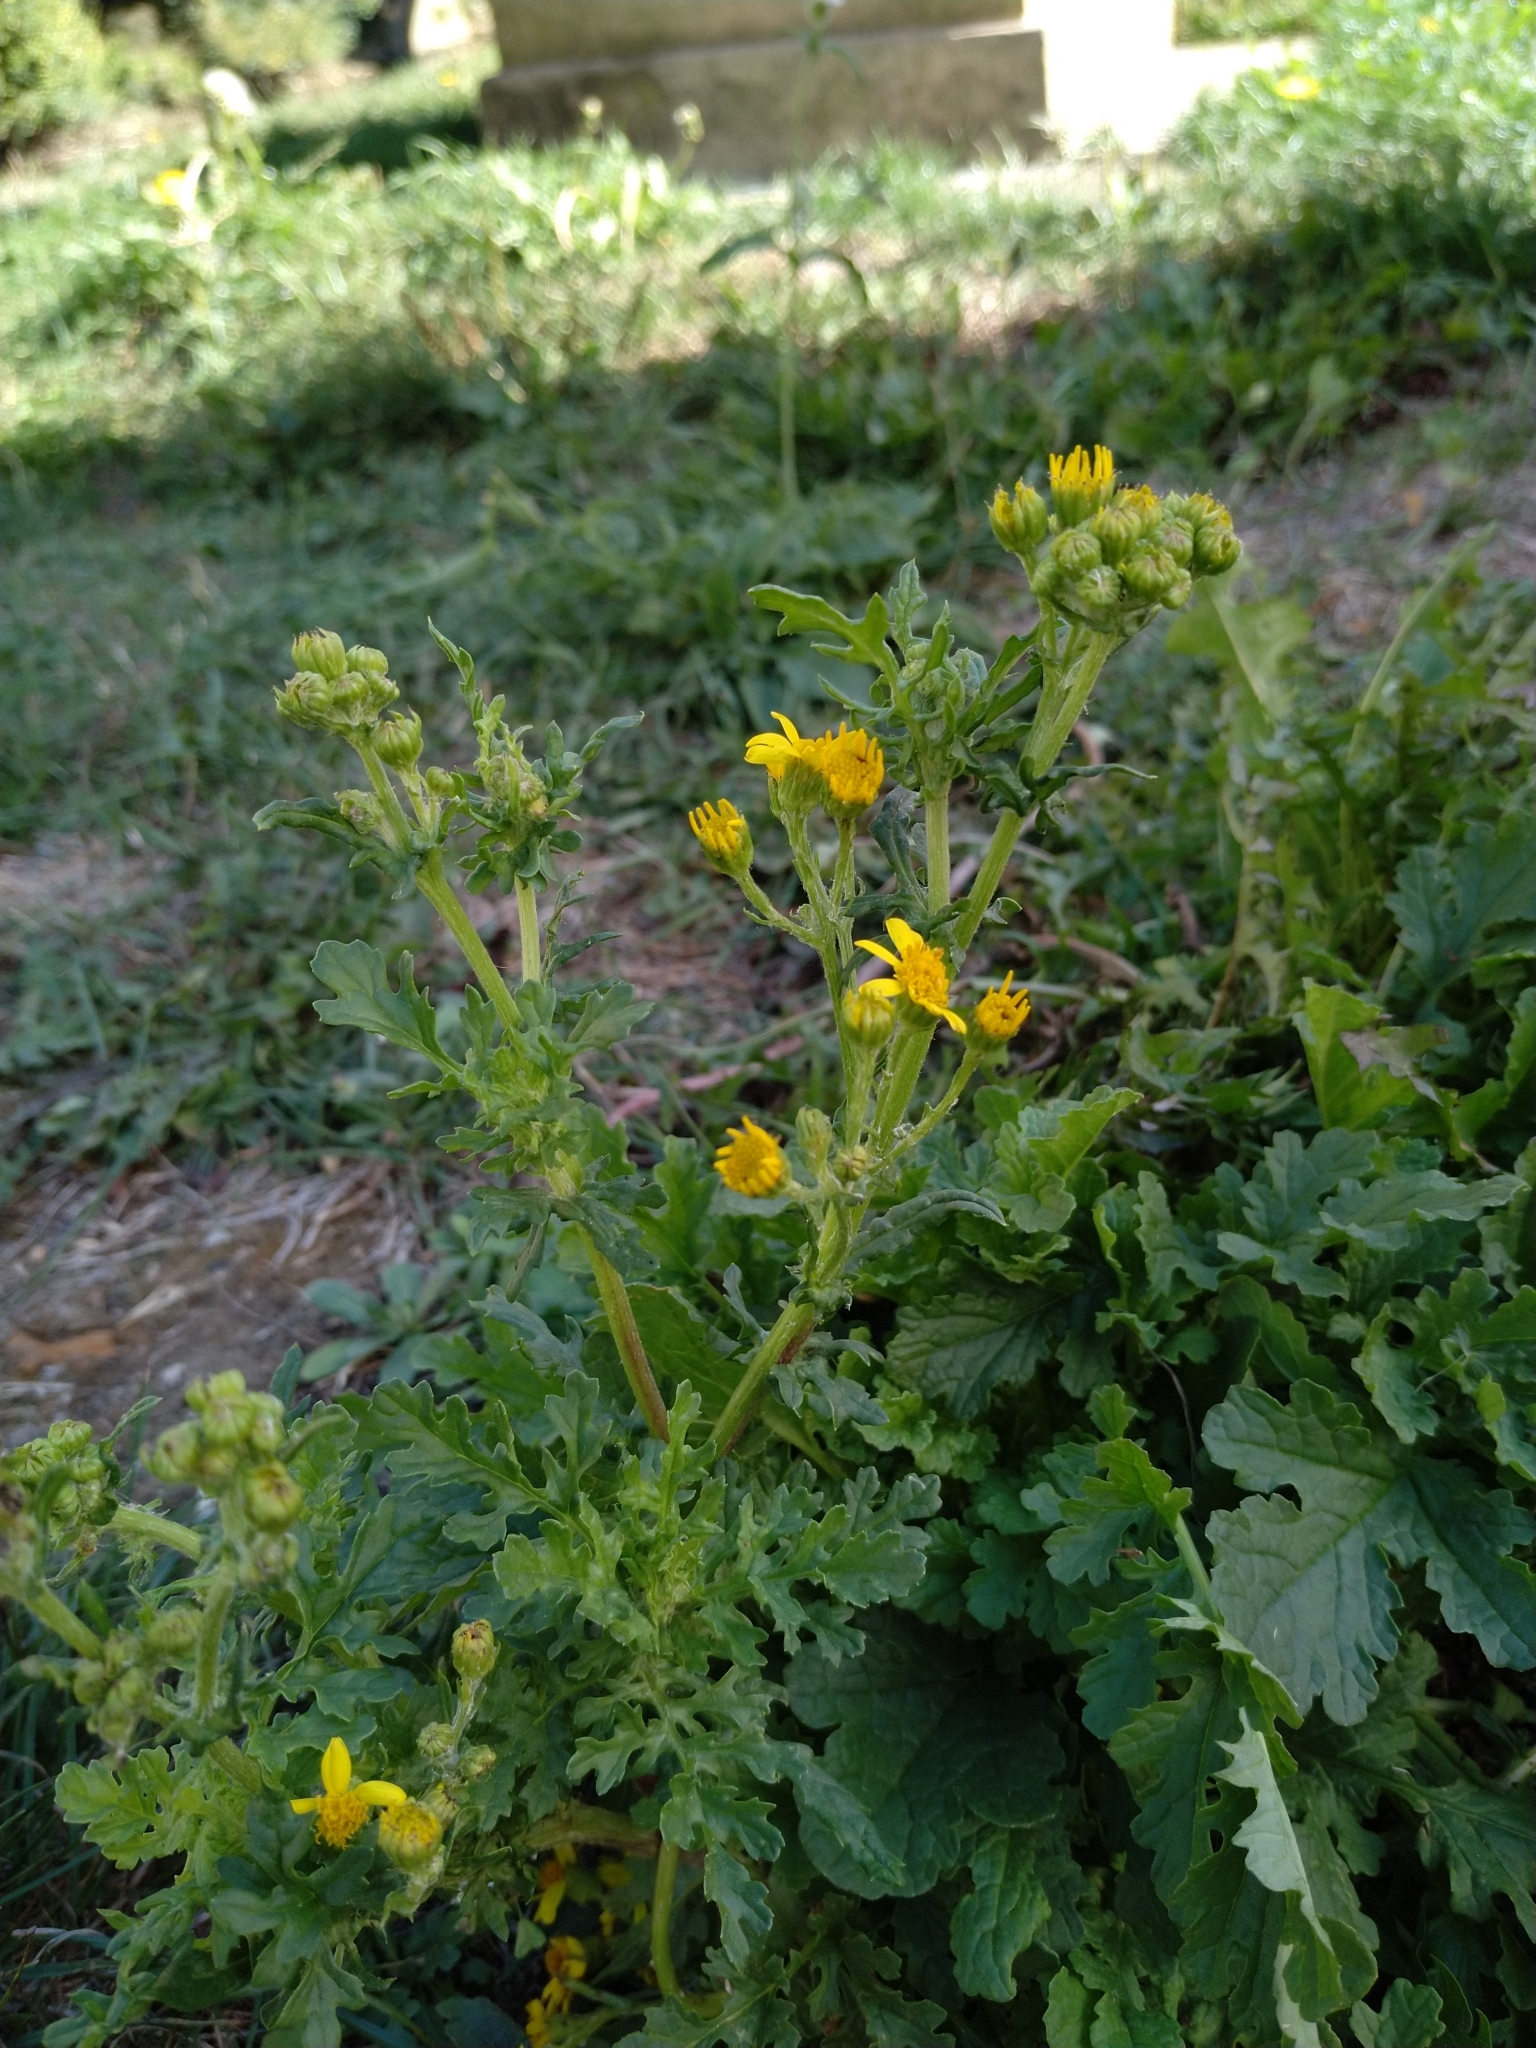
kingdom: Plantae
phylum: Tracheophyta
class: Magnoliopsida
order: Asterales
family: Asteraceae
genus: Jacobaea
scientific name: Jacobaea vulgaris
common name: Stinking willie
